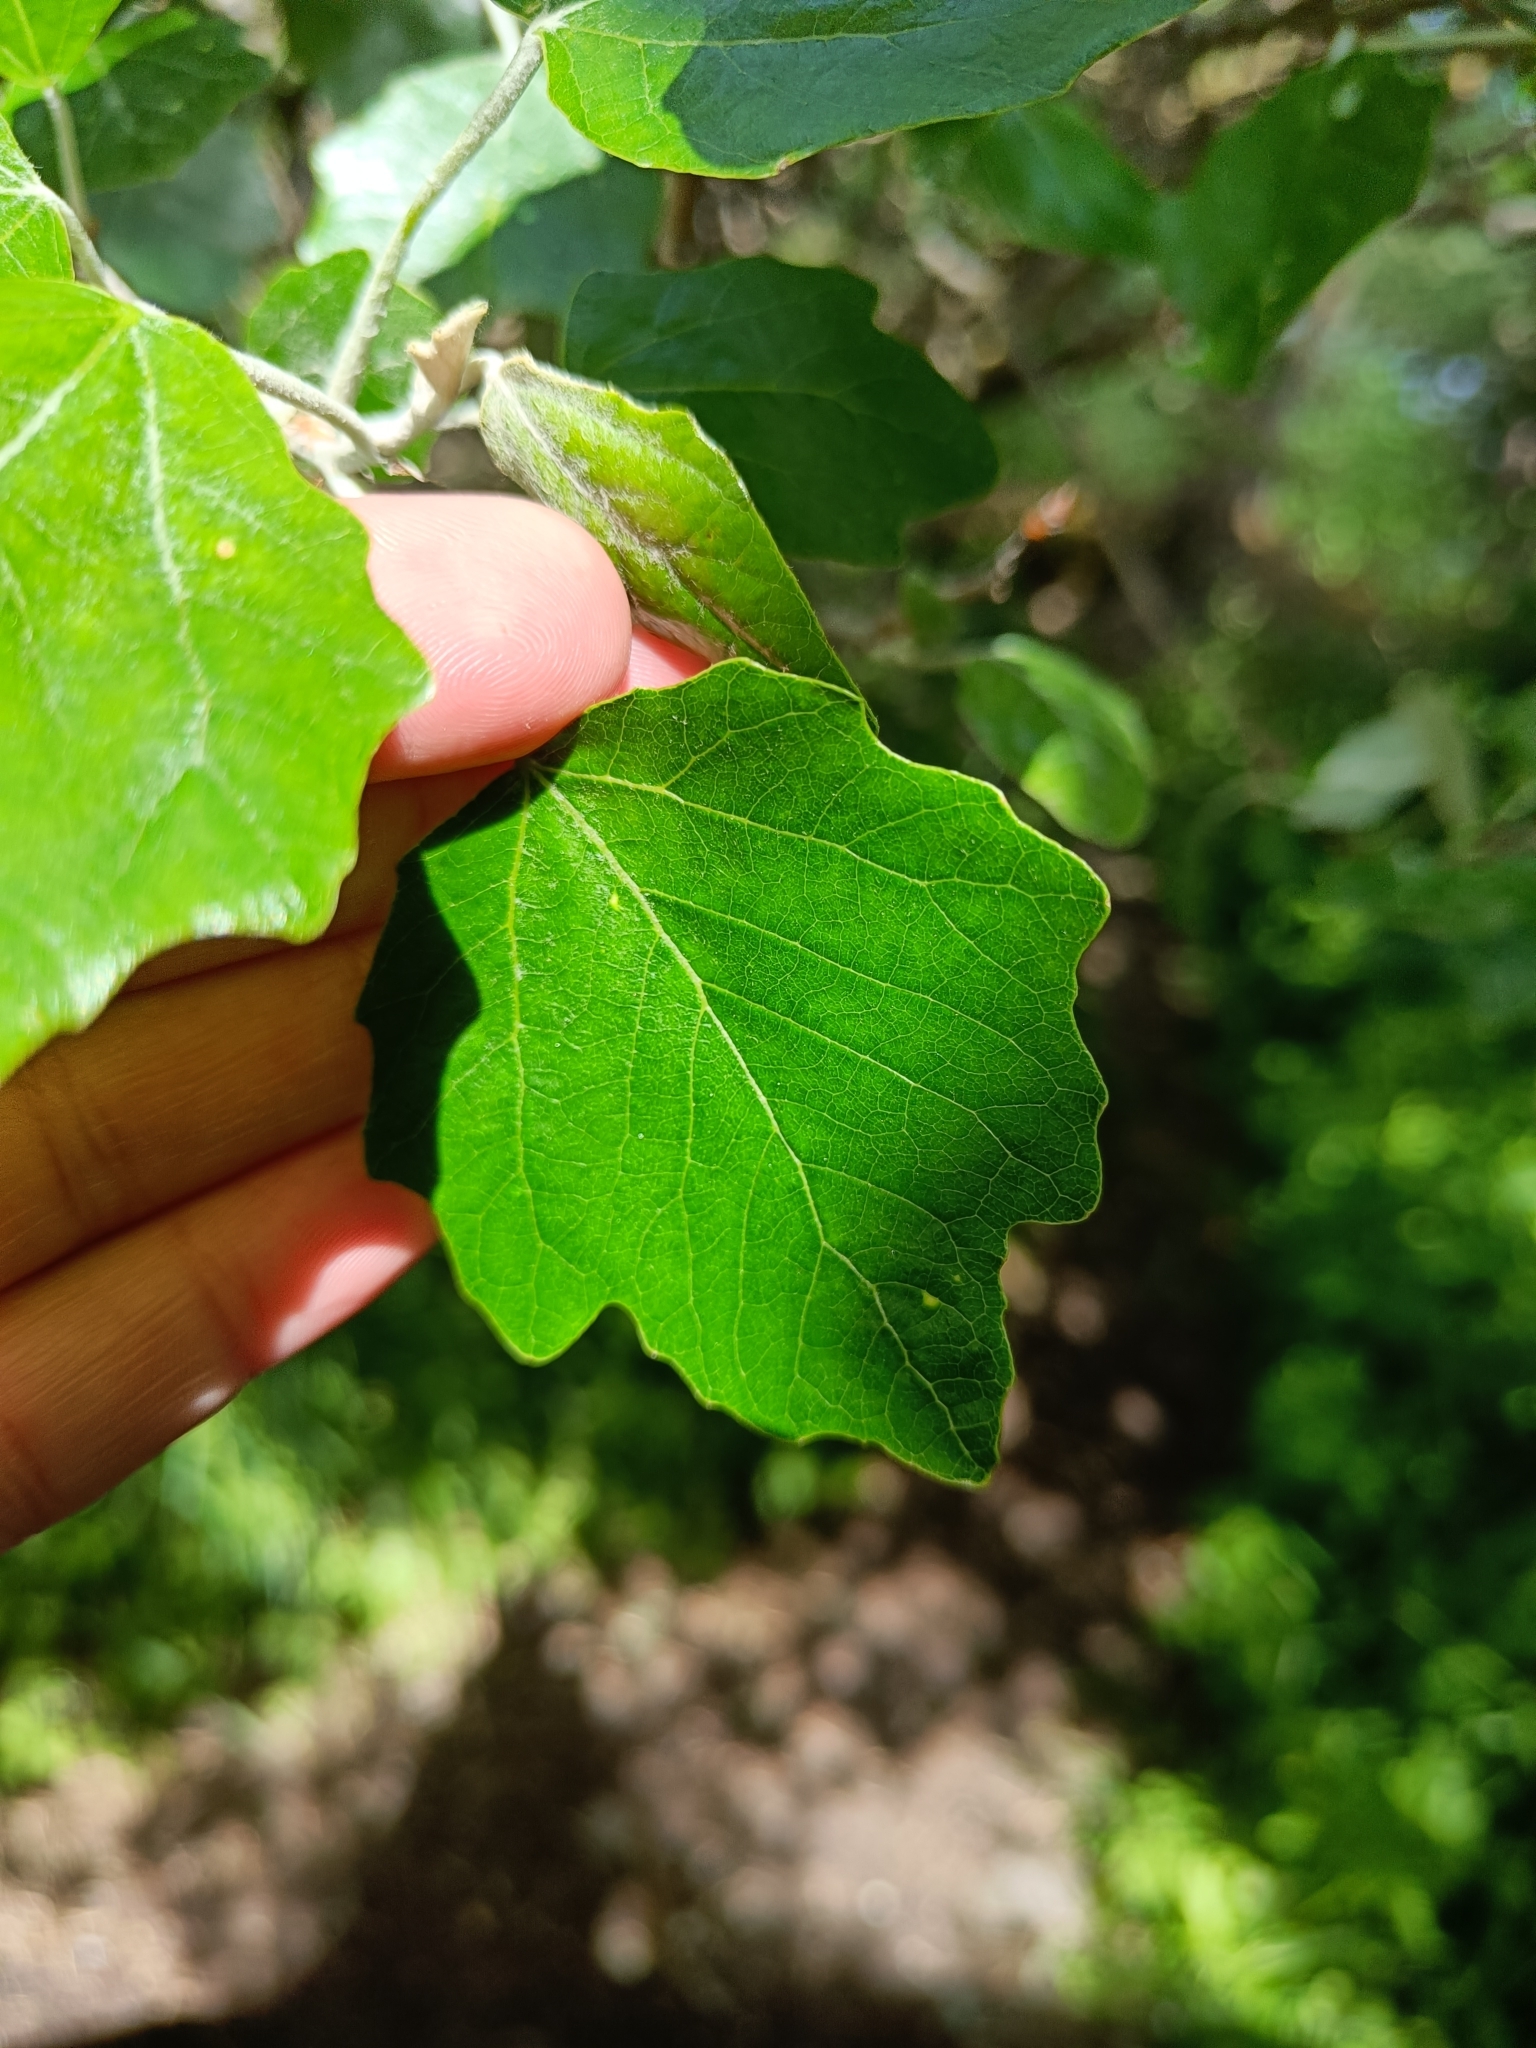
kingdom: Plantae
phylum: Tracheophyta
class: Magnoliopsida
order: Malpighiales
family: Salicaceae
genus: Populus
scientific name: Populus alba
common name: White poplar
